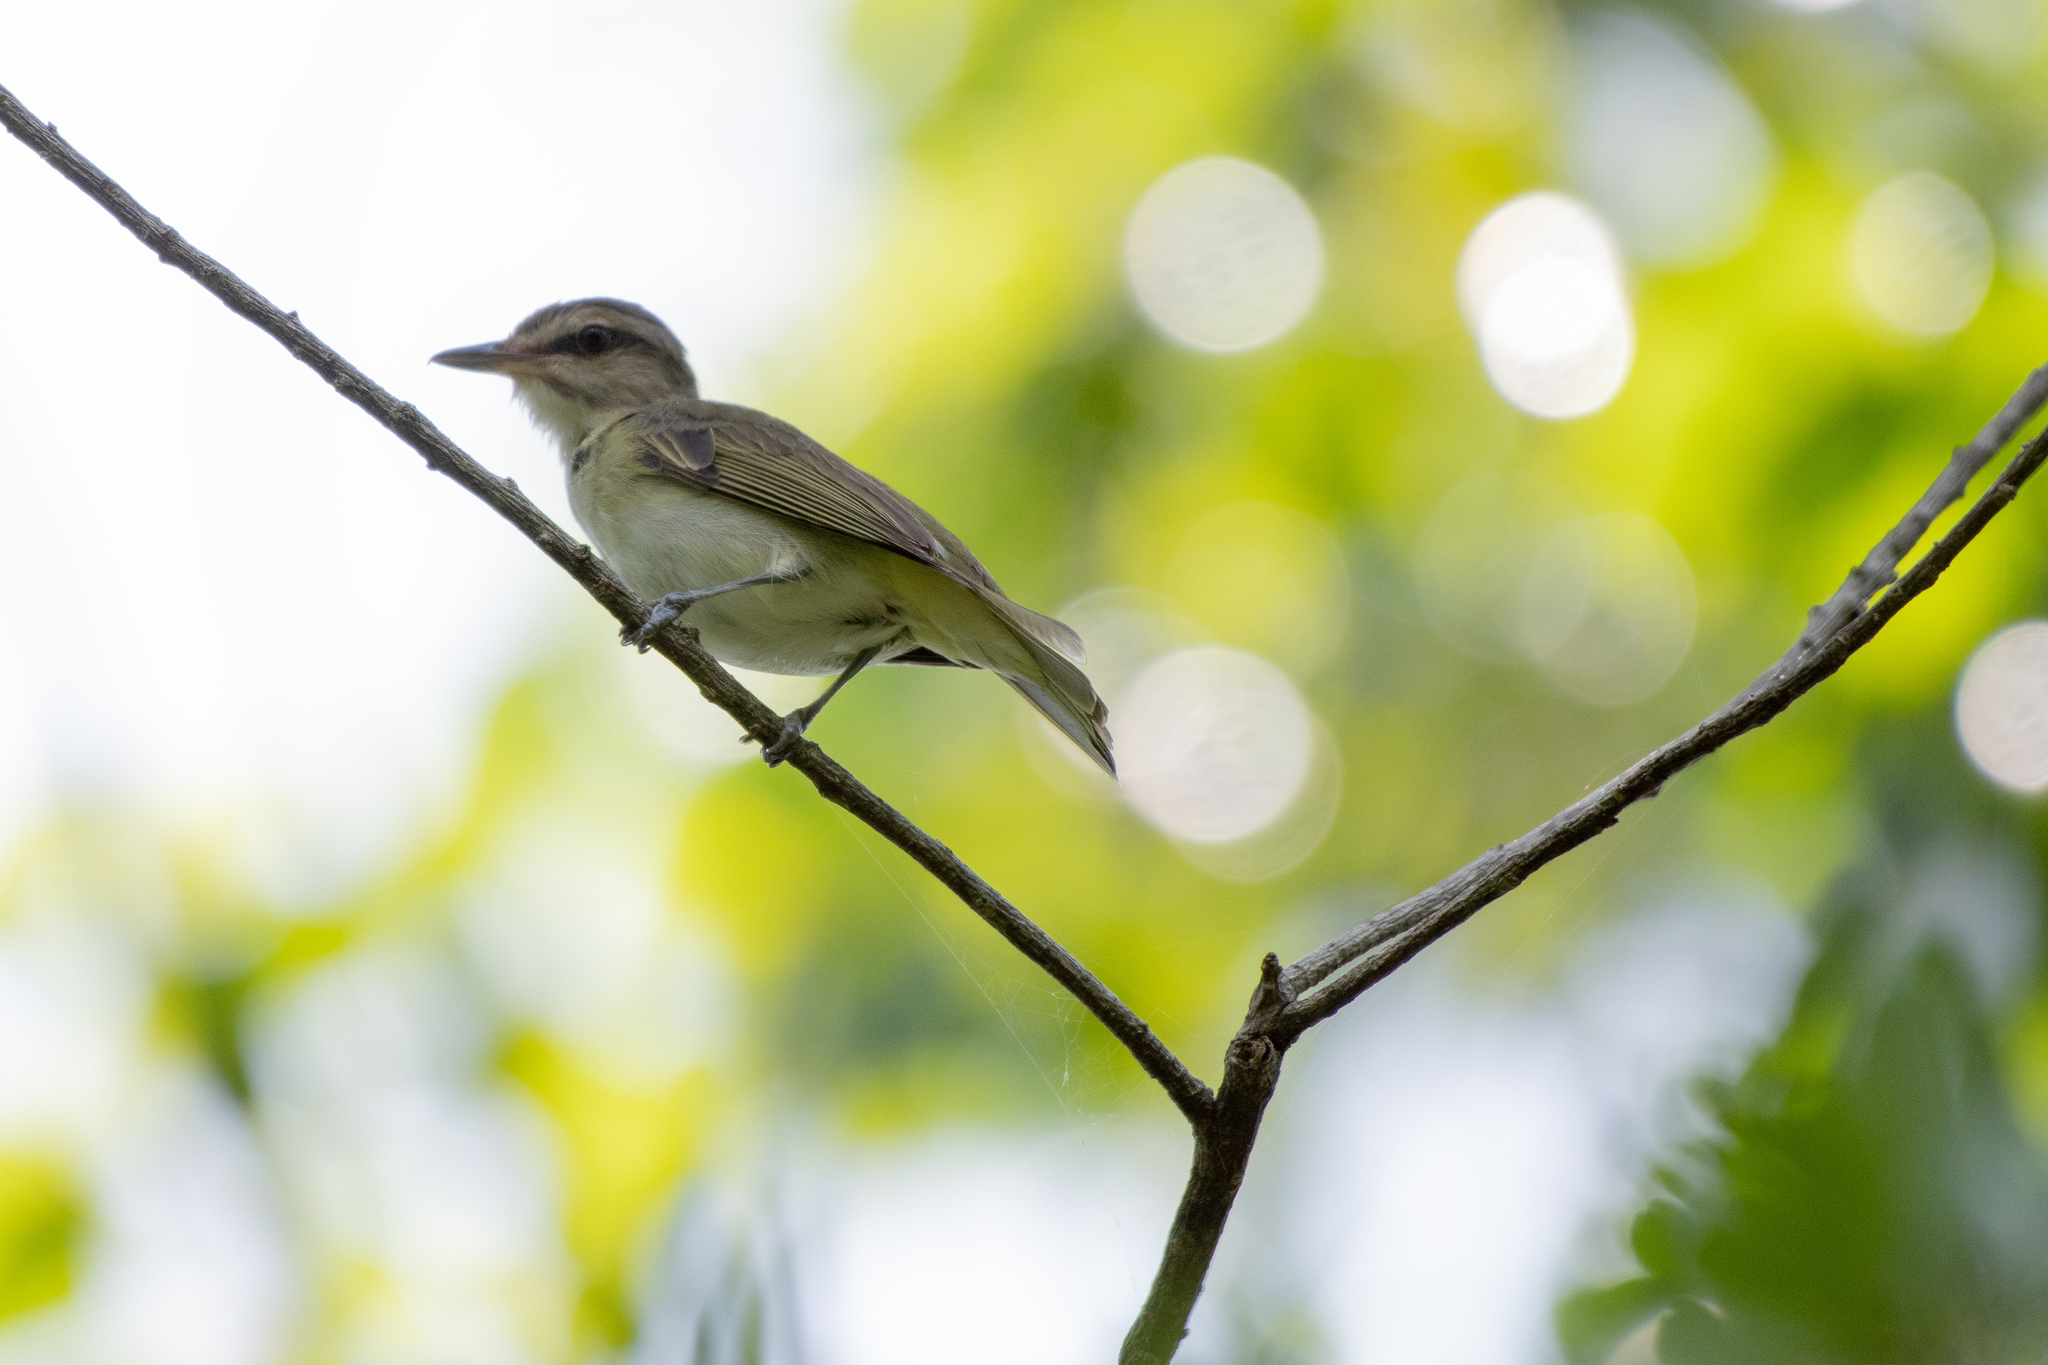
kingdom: Animalia
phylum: Chordata
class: Aves
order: Passeriformes
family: Vireonidae
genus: Vireo
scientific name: Vireo altiloquus
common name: Black-whiskered vireo
